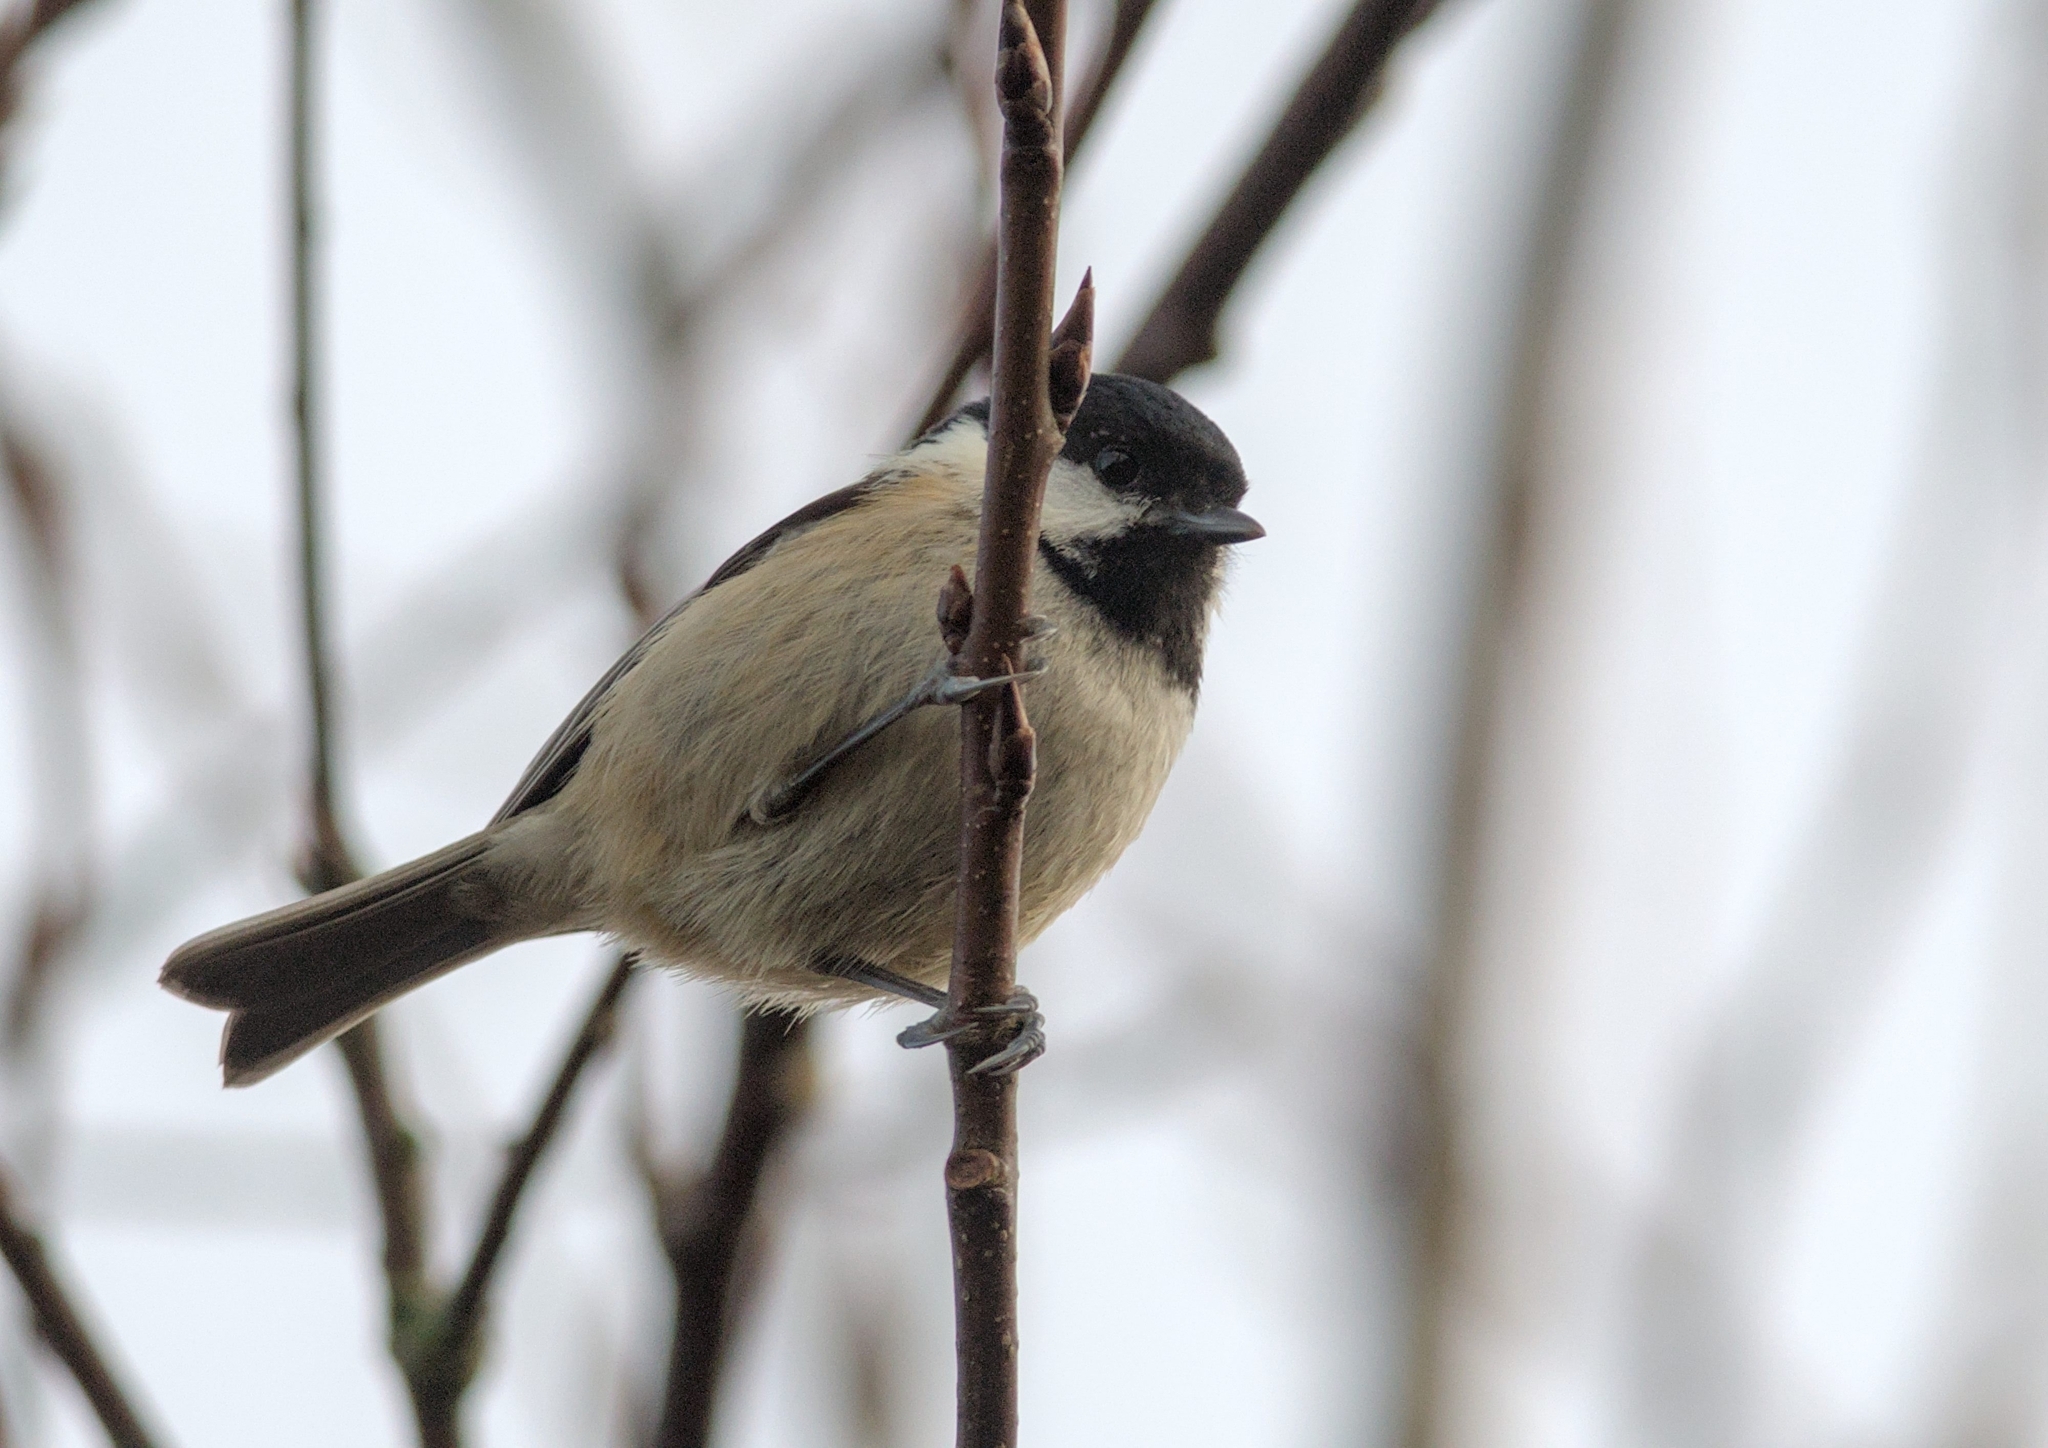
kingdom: Animalia
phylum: Chordata
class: Aves
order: Passeriformes
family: Paridae
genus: Periparus
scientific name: Periparus ater
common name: Coal tit
